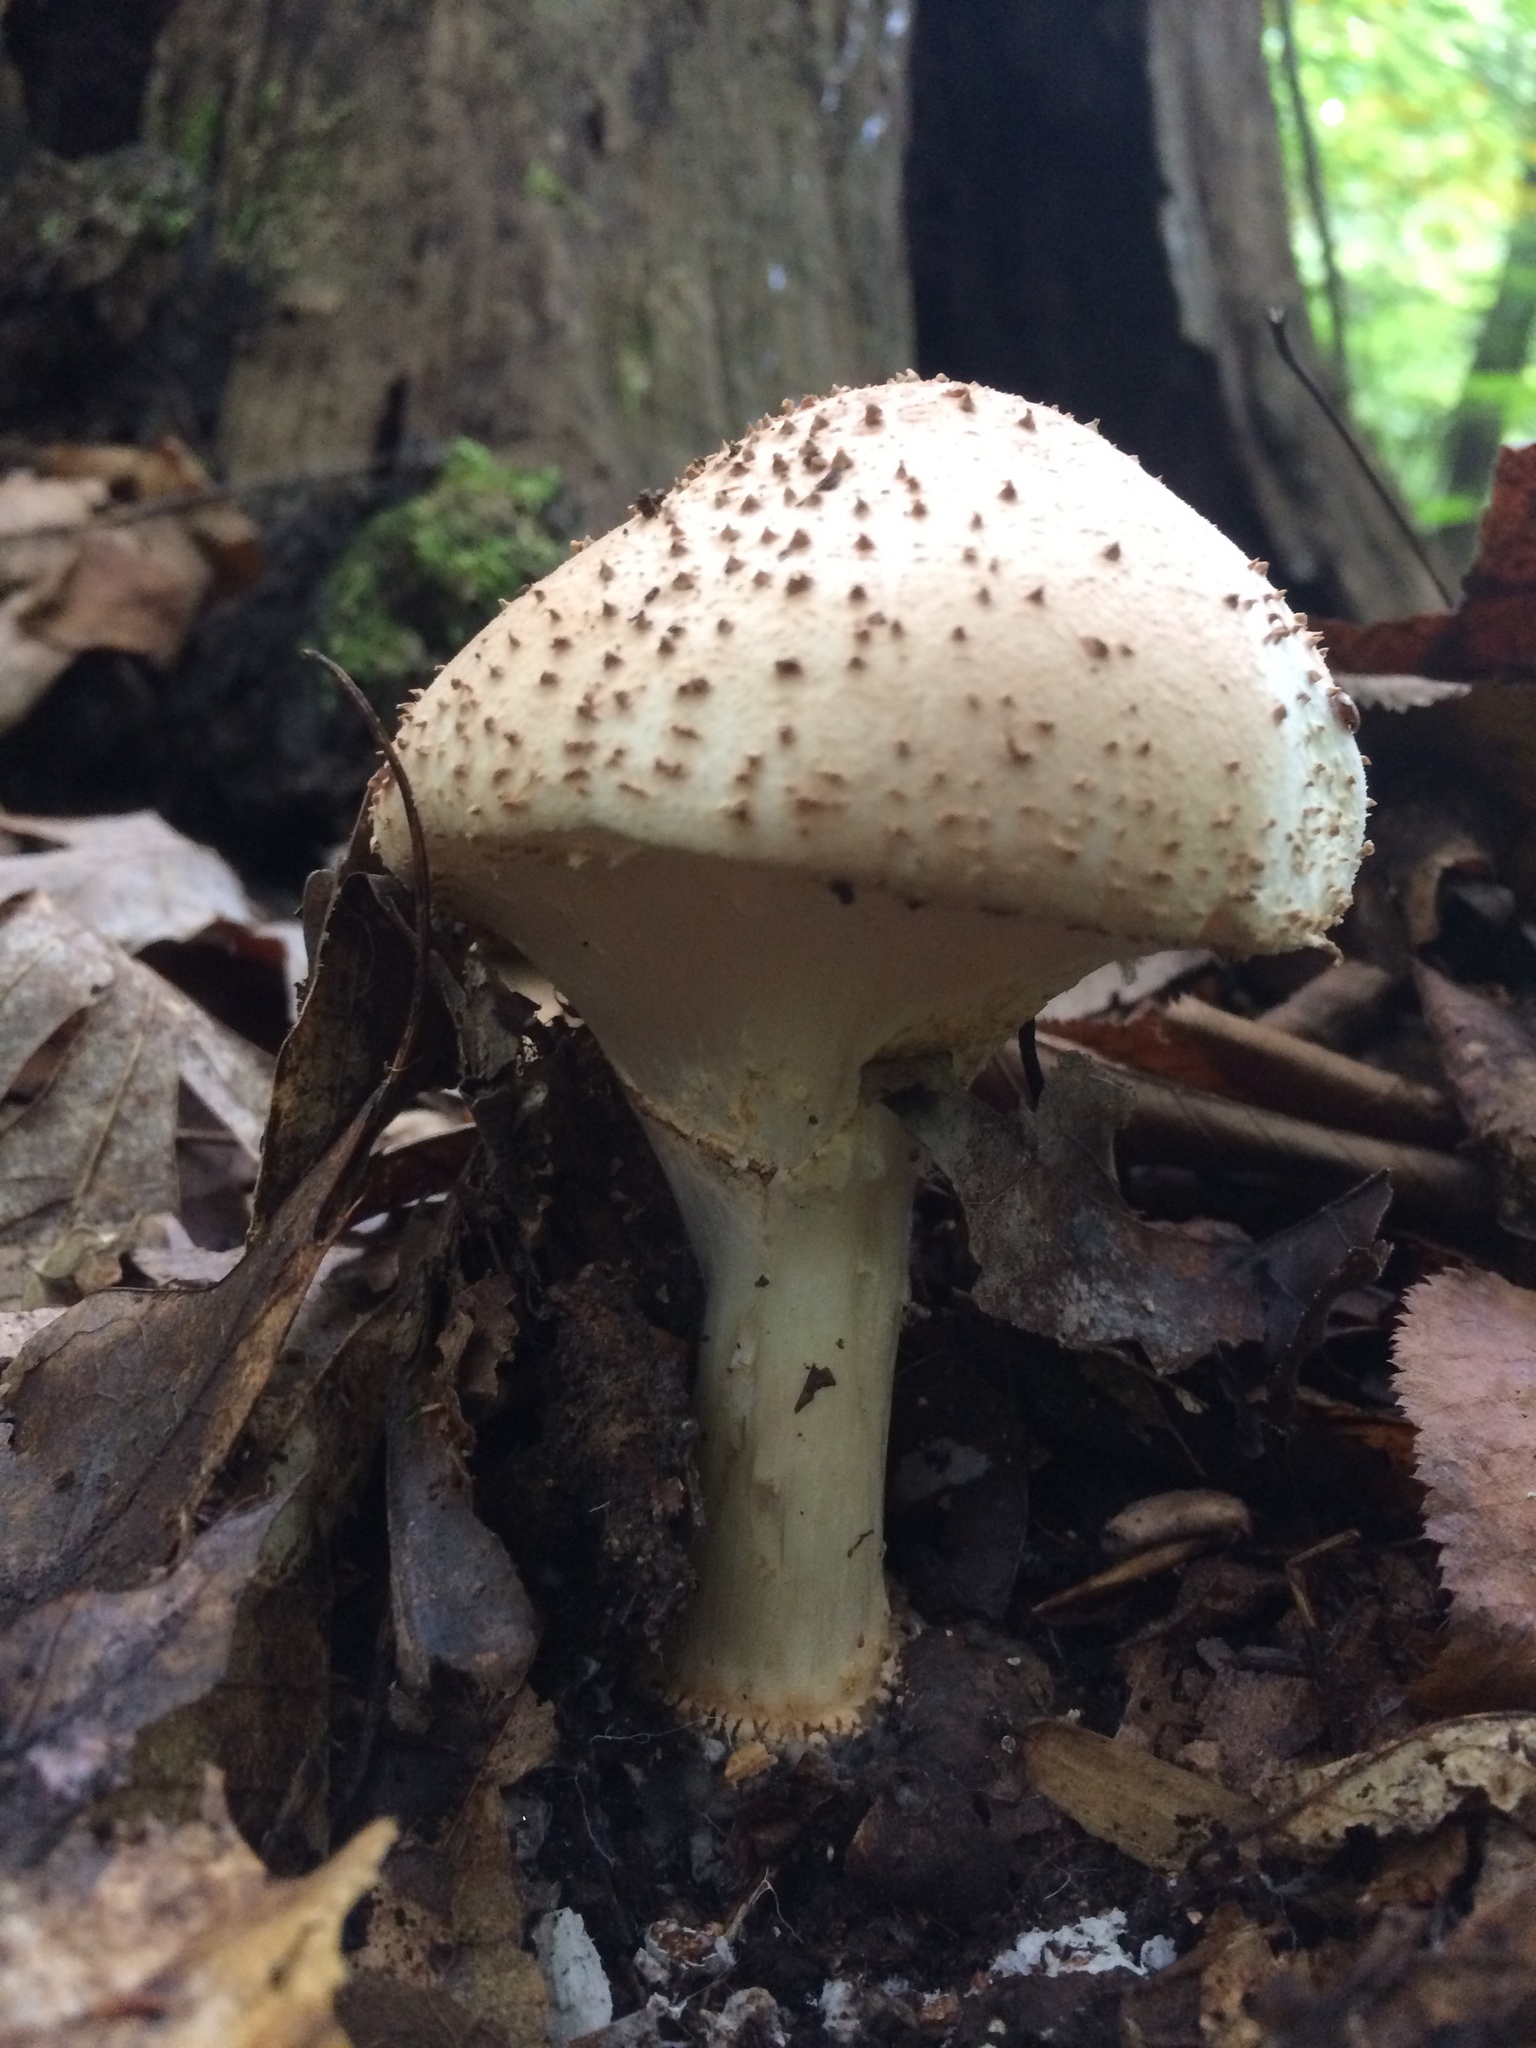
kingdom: Fungi
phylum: Basidiomycota
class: Agaricomycetes
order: Agaricales
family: Agaricaceae
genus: Echinoderma
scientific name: Echinoderma asperum
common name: Freckled dapperling
